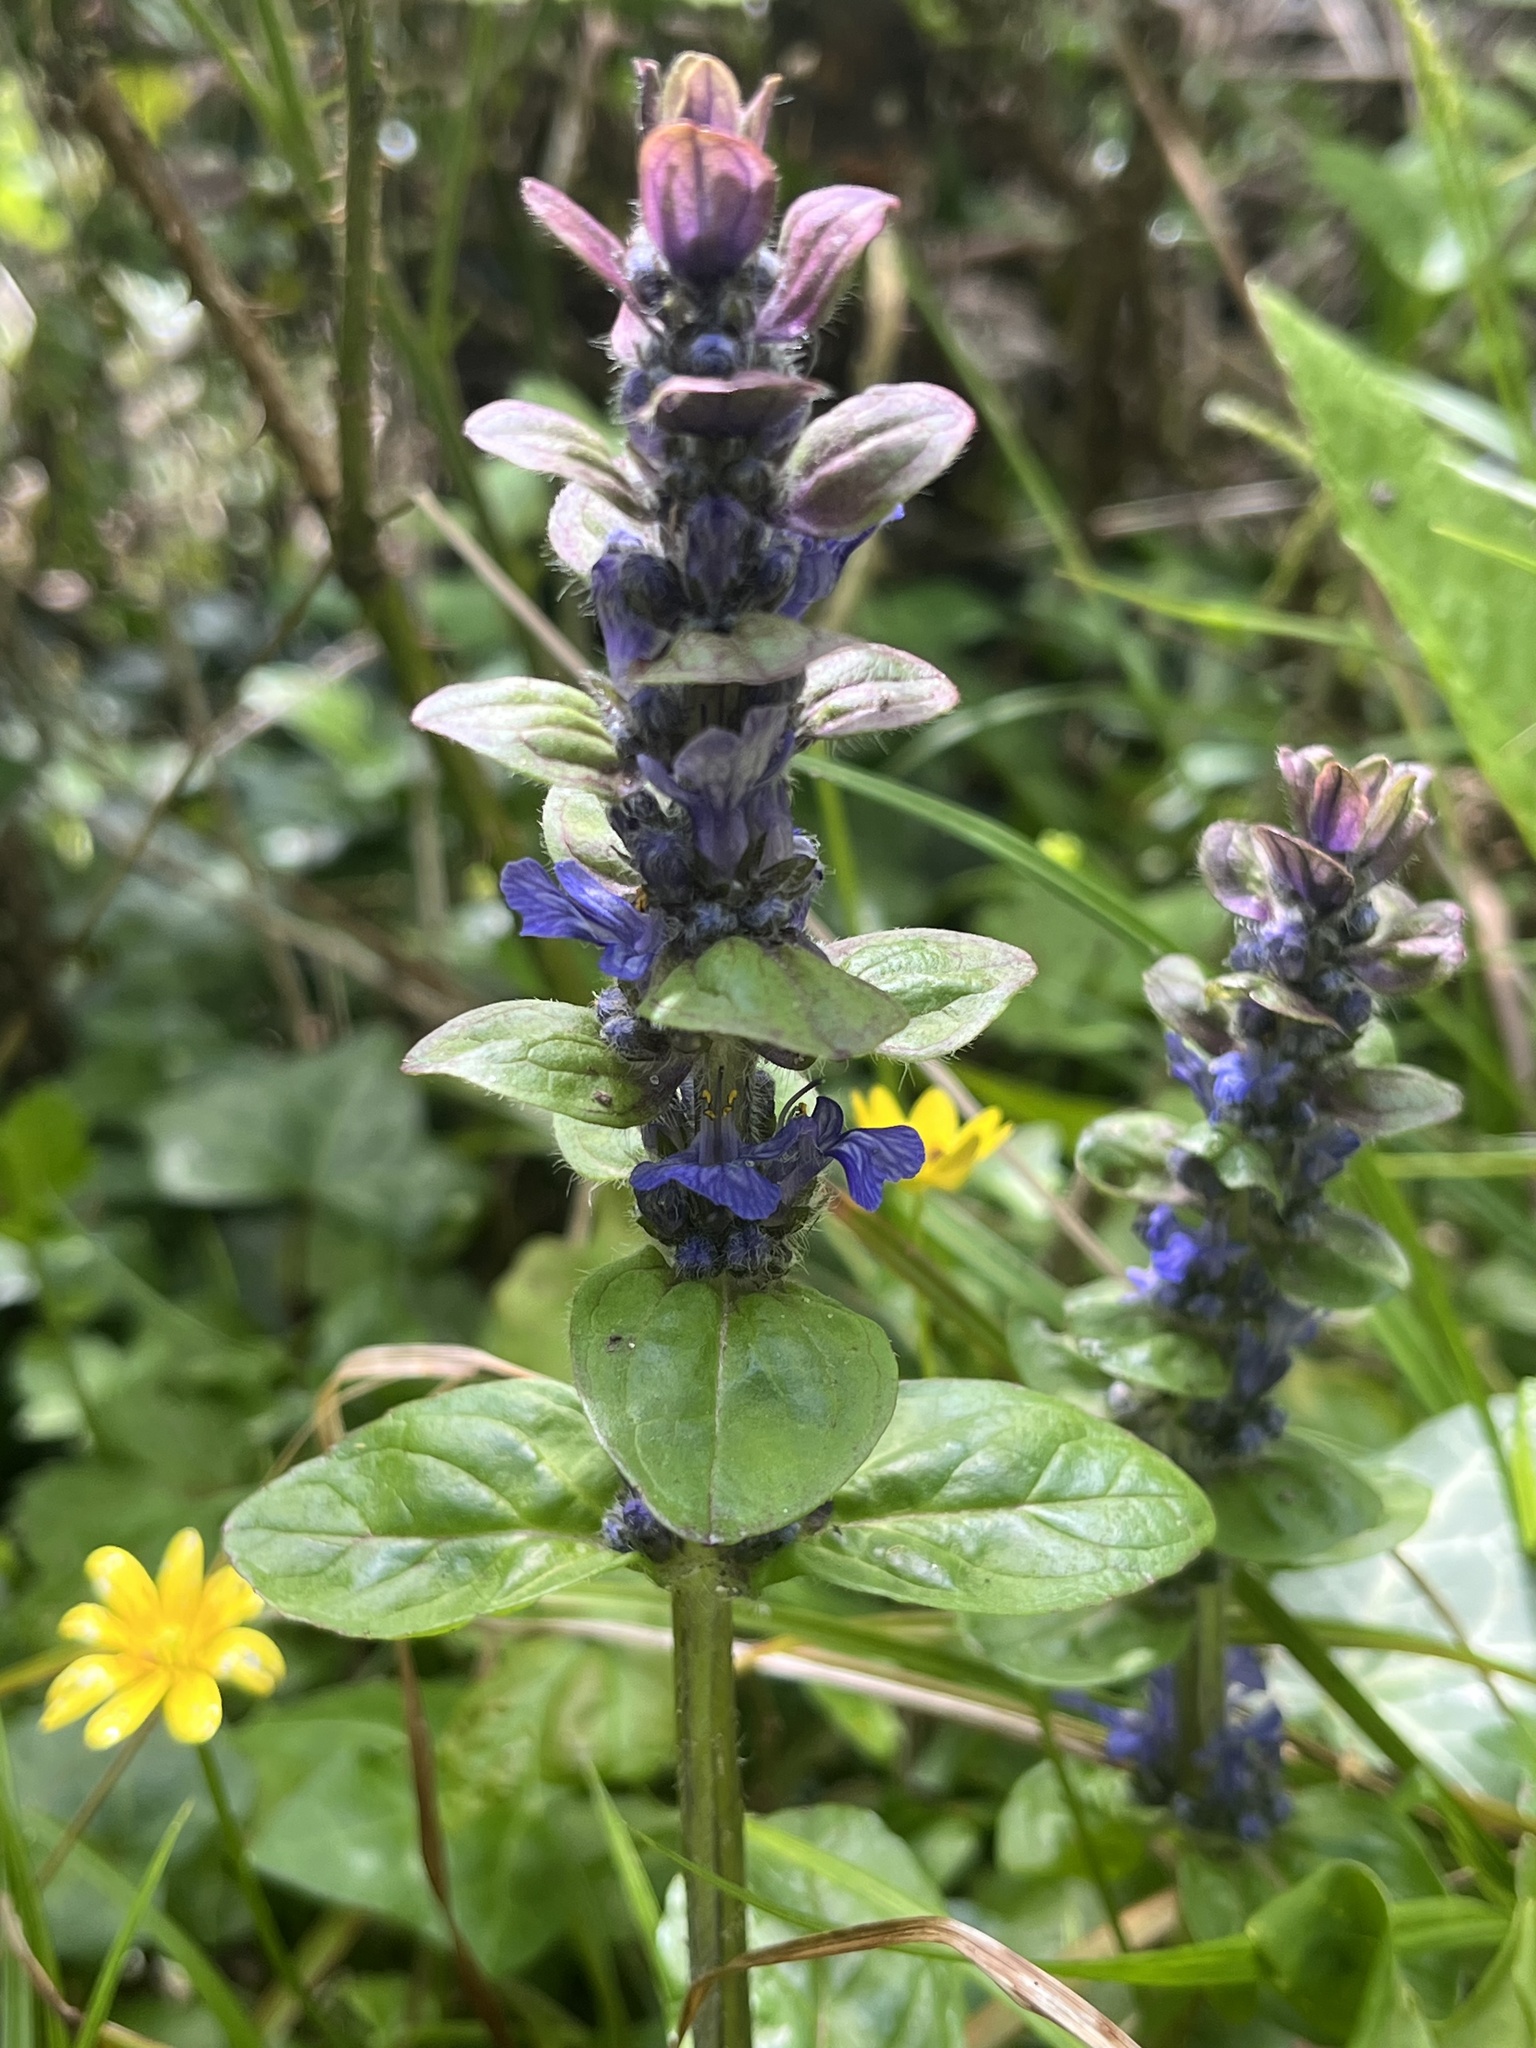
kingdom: Plantae
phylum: Tracheophyta
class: Magnoliopsida
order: Lamiales
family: Lamiaceae
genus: Ajuga
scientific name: Ajuga reptans
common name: Bugle
